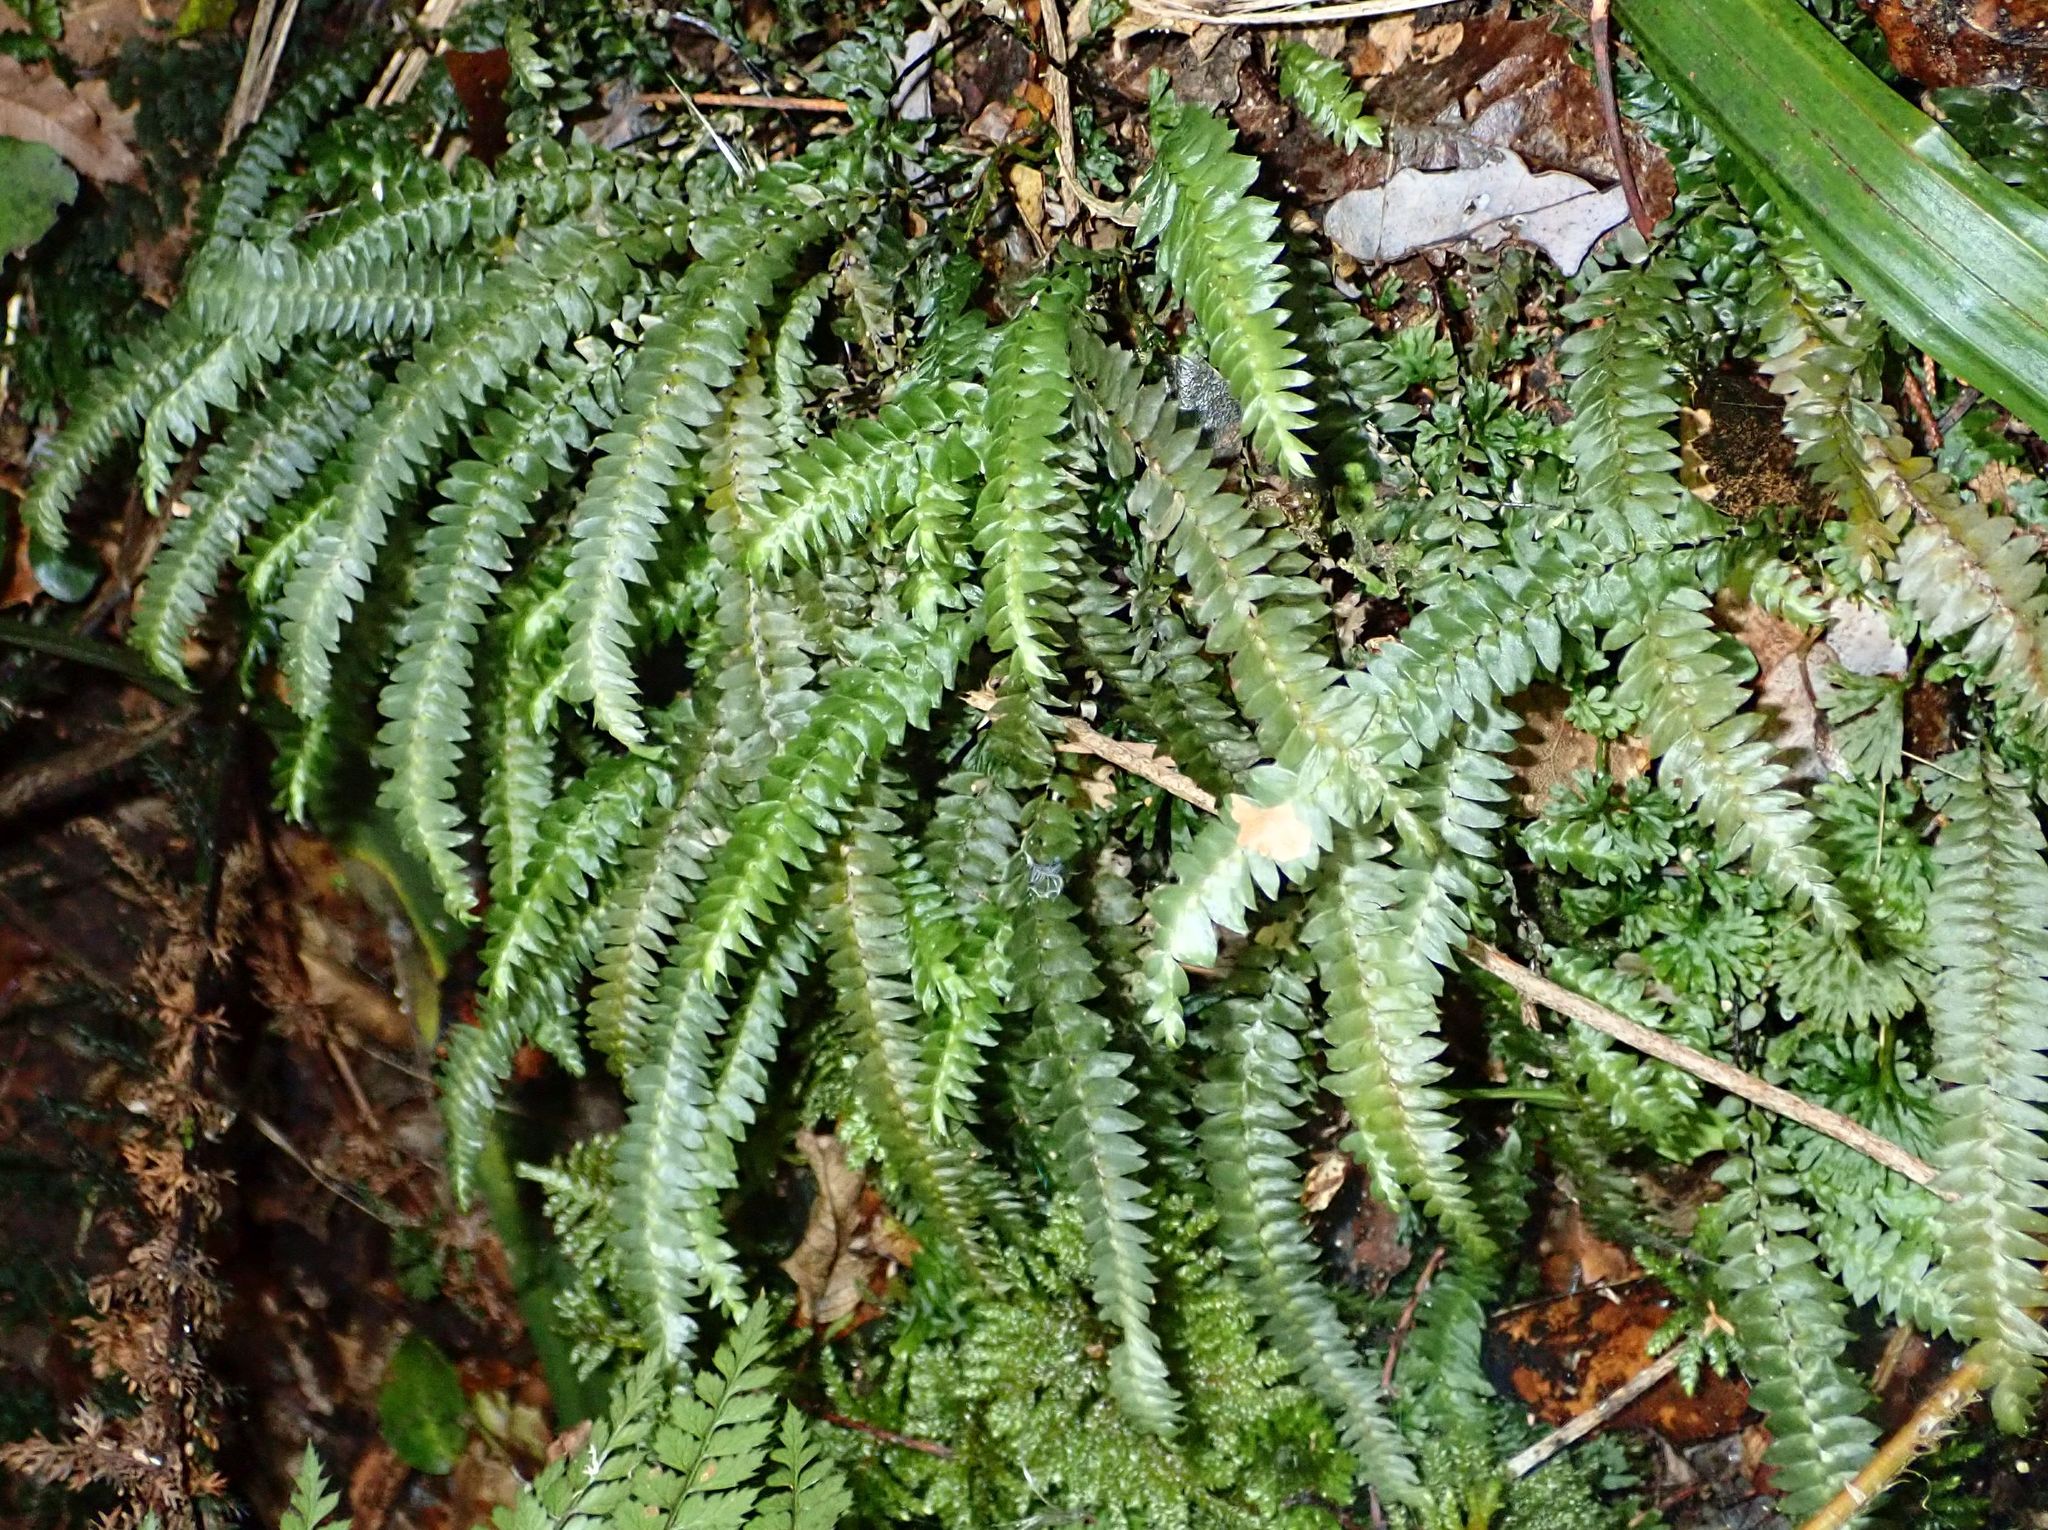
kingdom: Plantae
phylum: Bryophyta
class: Bryopsida
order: Hypopterygiales
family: Hypopterygiaceae
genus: Cyathophorum
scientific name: Cyathophorum bulbosum
